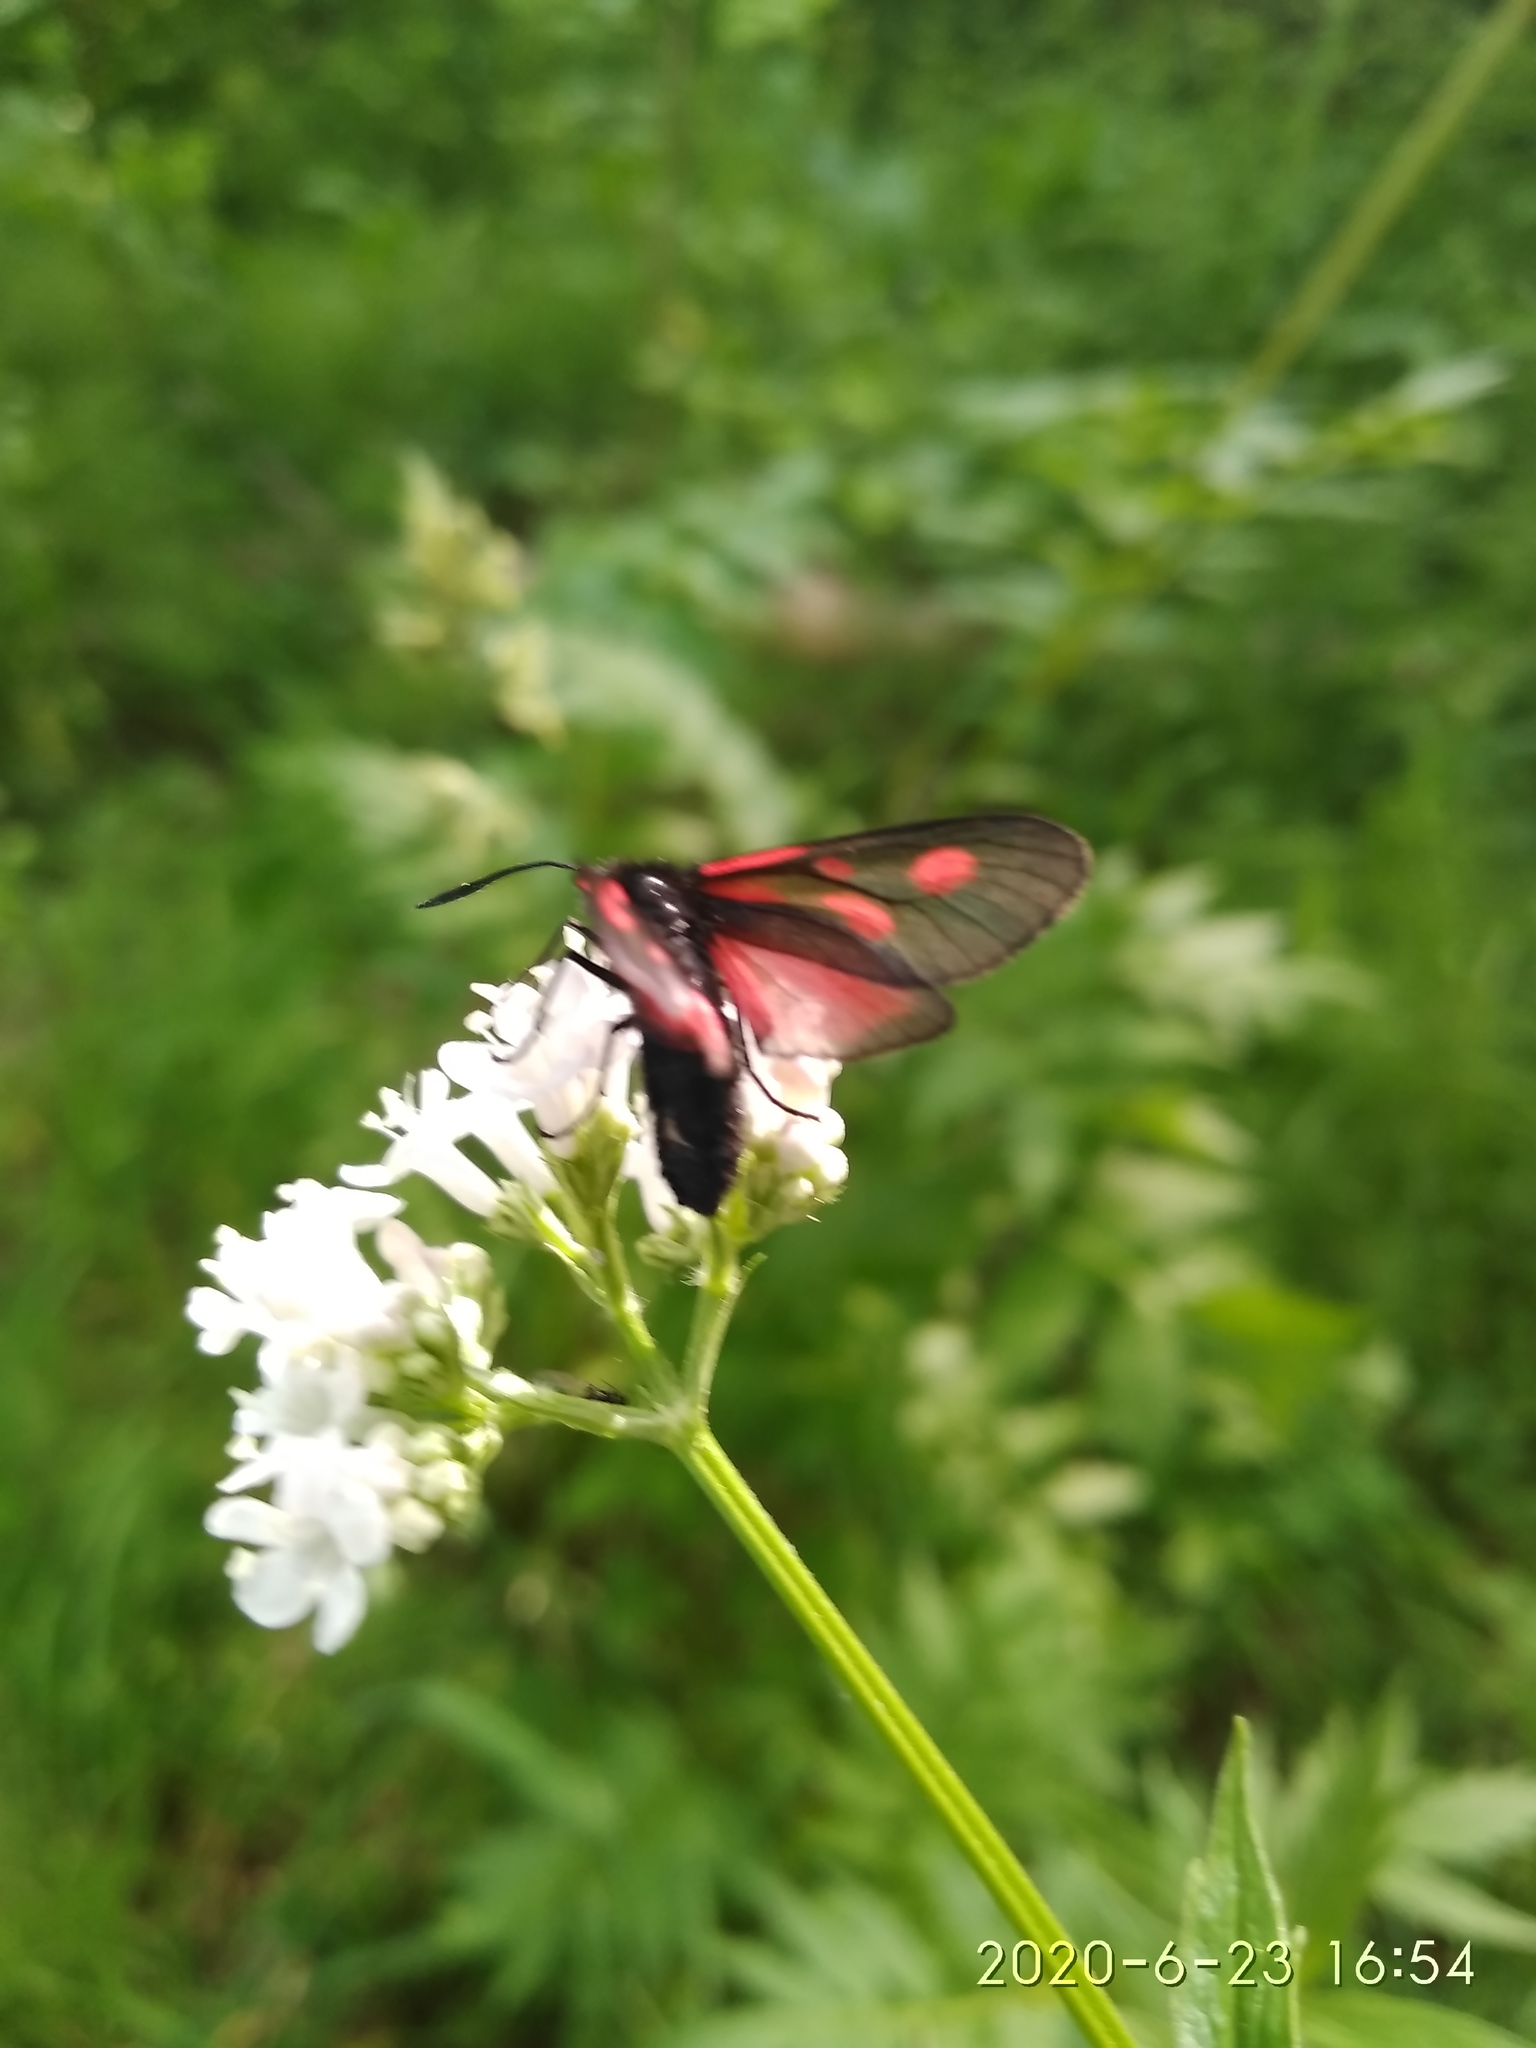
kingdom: Animalia
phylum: Arthropoda
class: Insecta
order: Lepidoptera
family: Zygaenidae
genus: Zygaena
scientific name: Zygaena osterodensis
